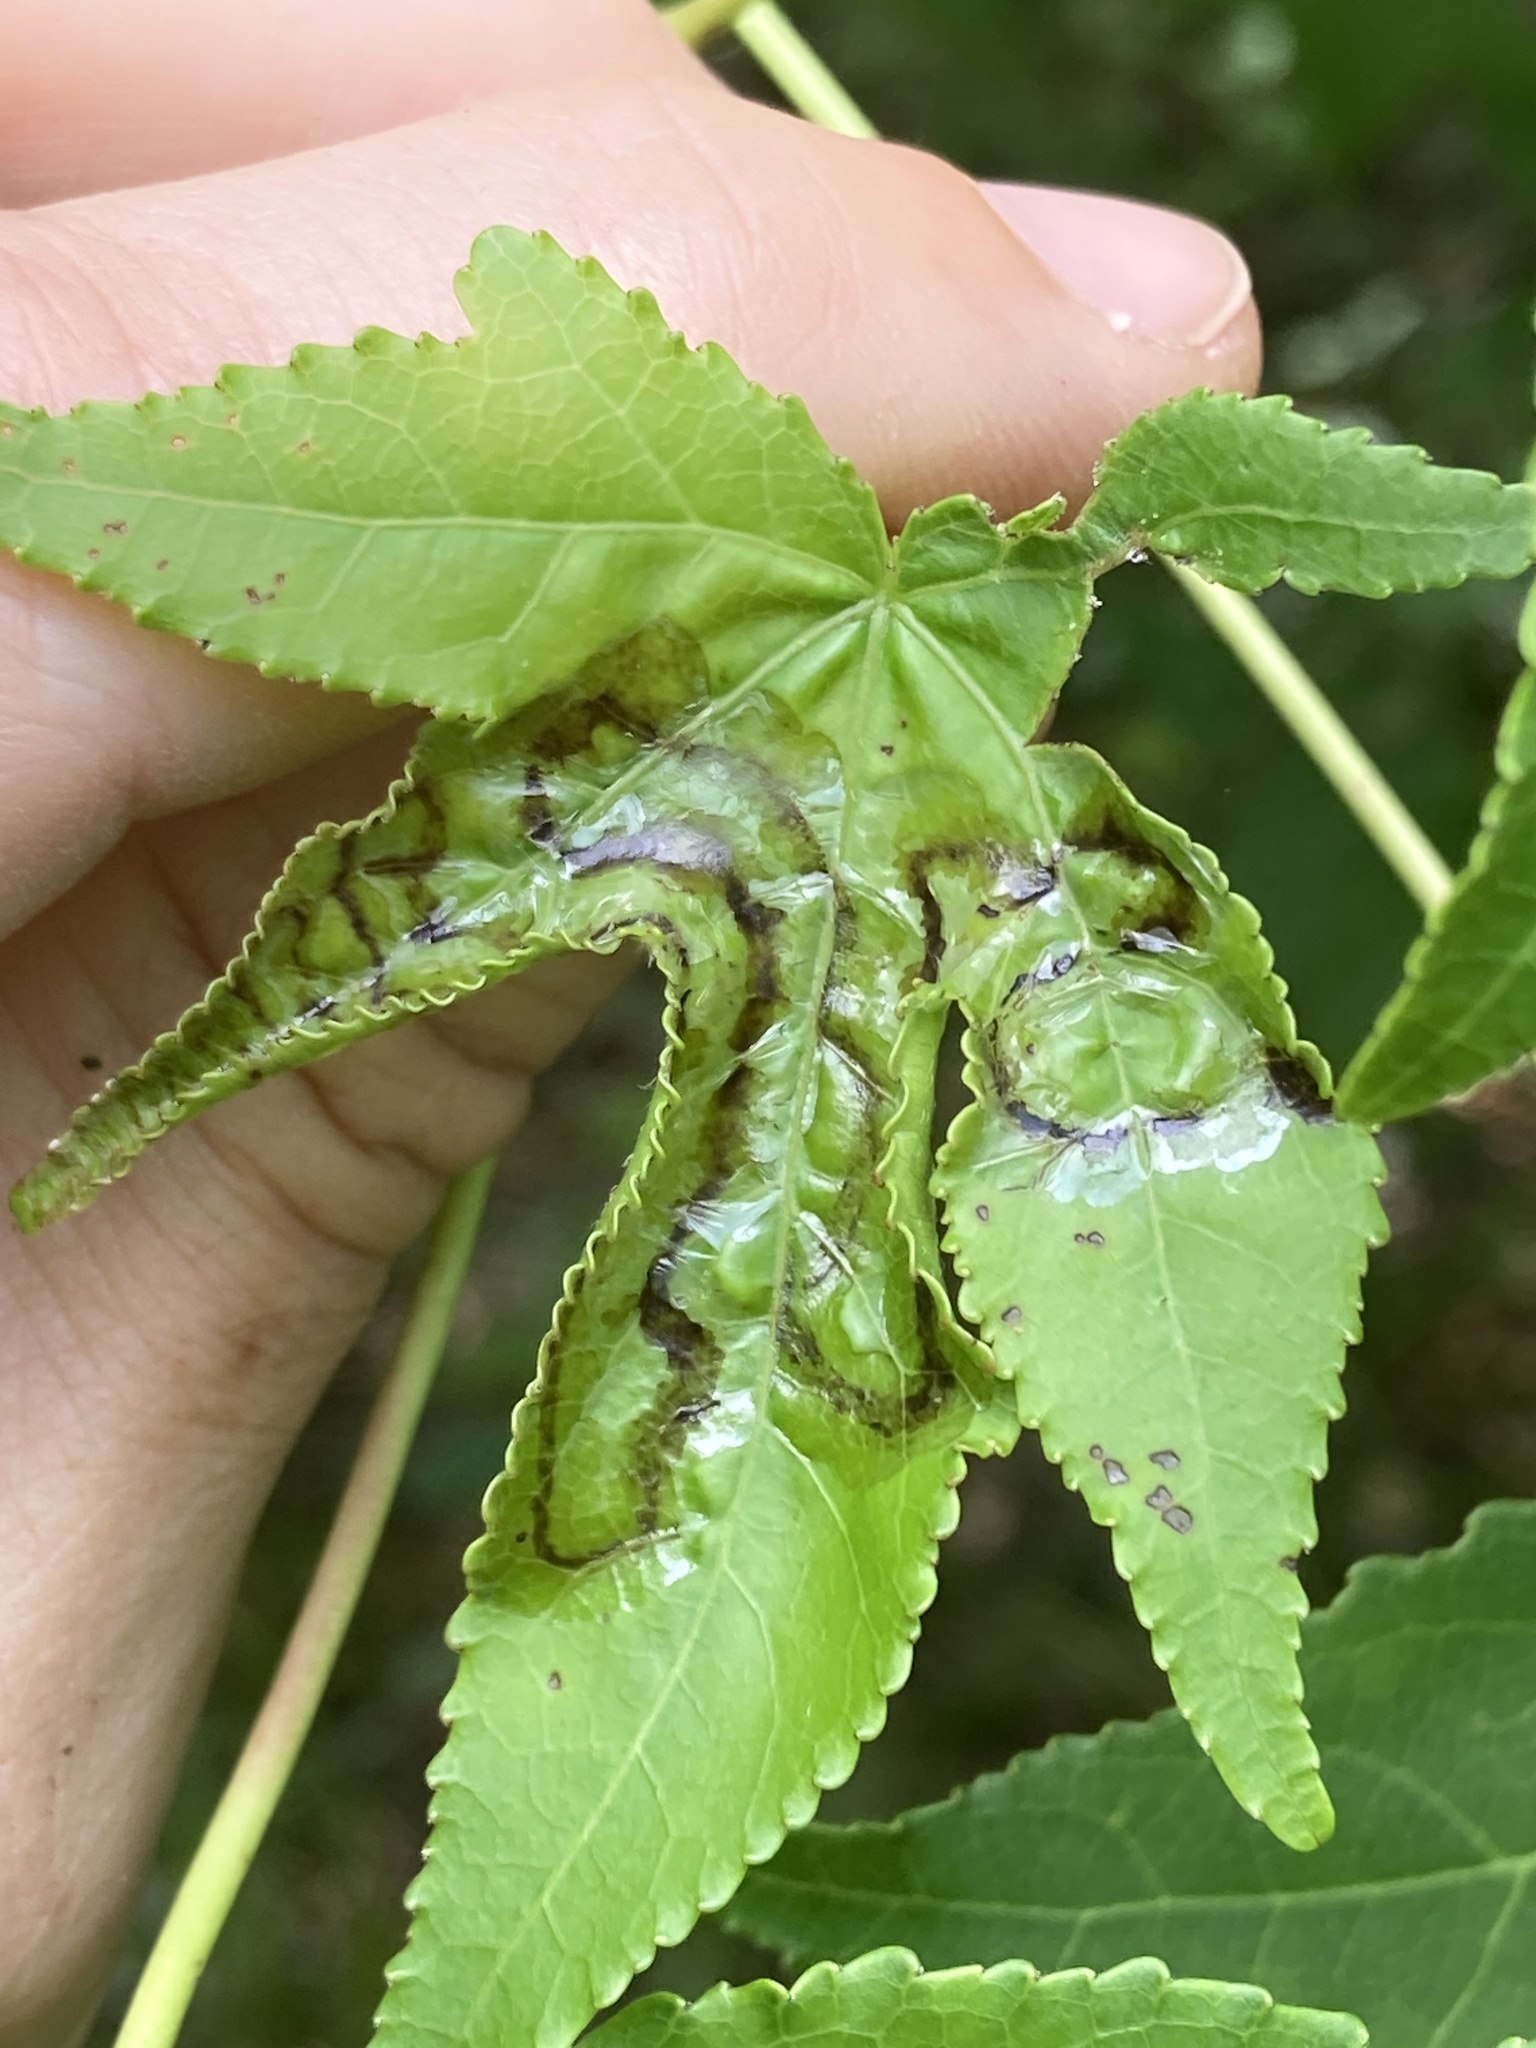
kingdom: Animalia
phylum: Arthropoda
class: Insecta
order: Lepidoptera
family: Gracillariidae
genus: Phyllocnistis
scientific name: Phyllocnistis liquidambarisella
